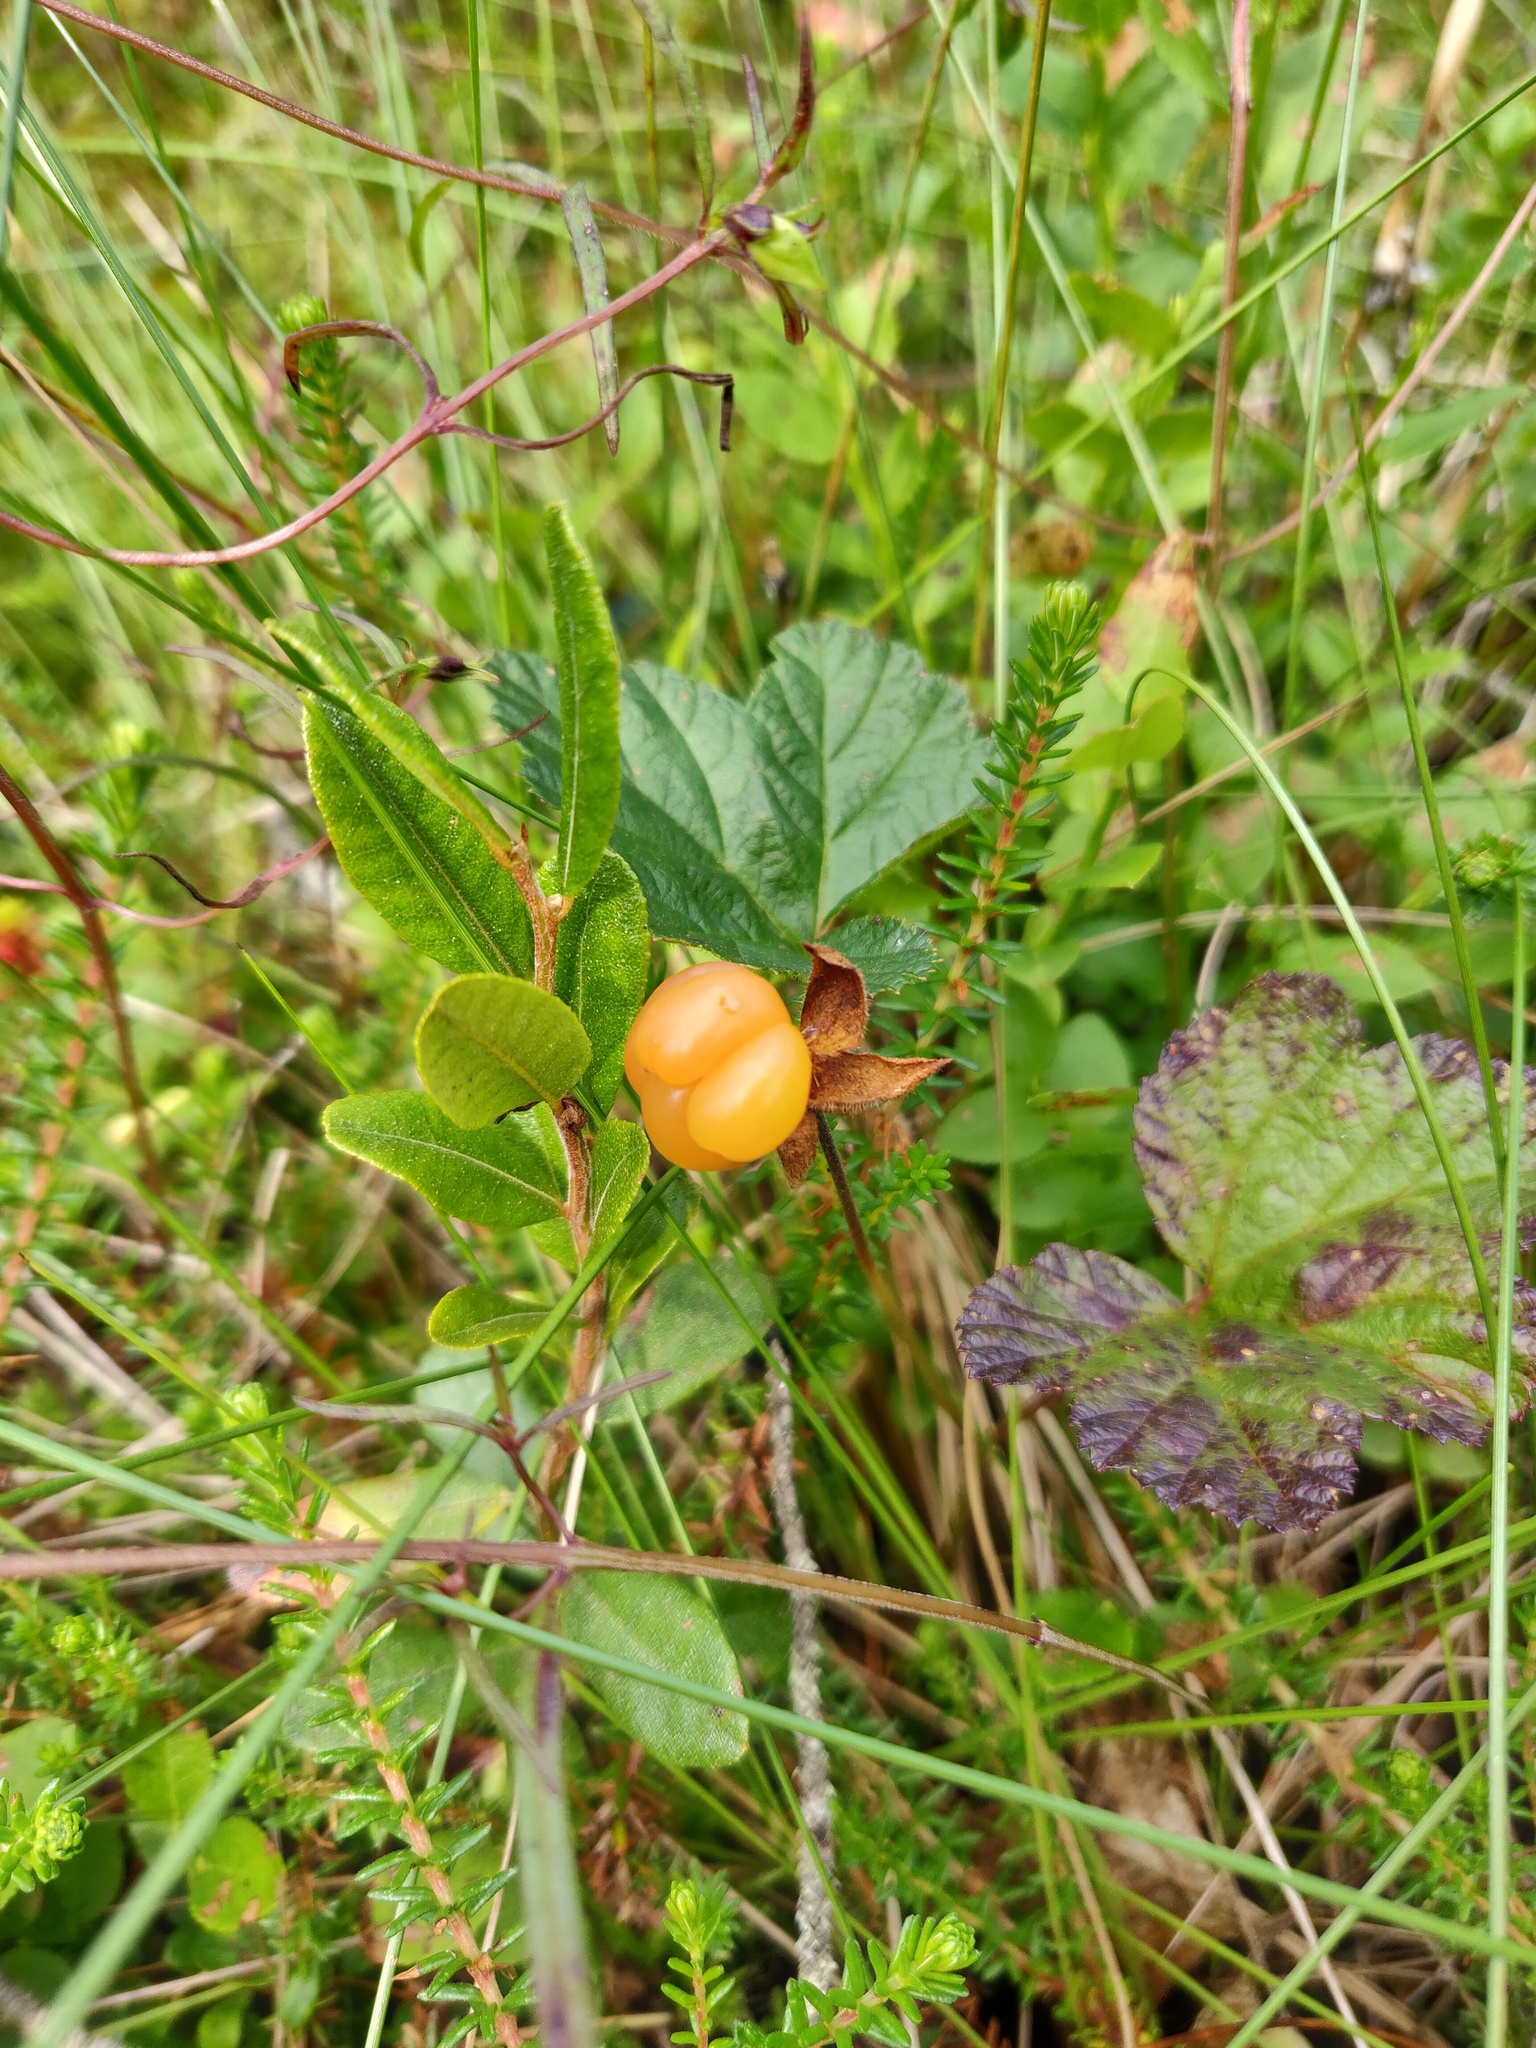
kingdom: Plantae
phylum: Tracheophyta
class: Magnoliopsida
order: Rosales
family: Rosaceae
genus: Rubus
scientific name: Rubus chamaemorus
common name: Cloudberry
